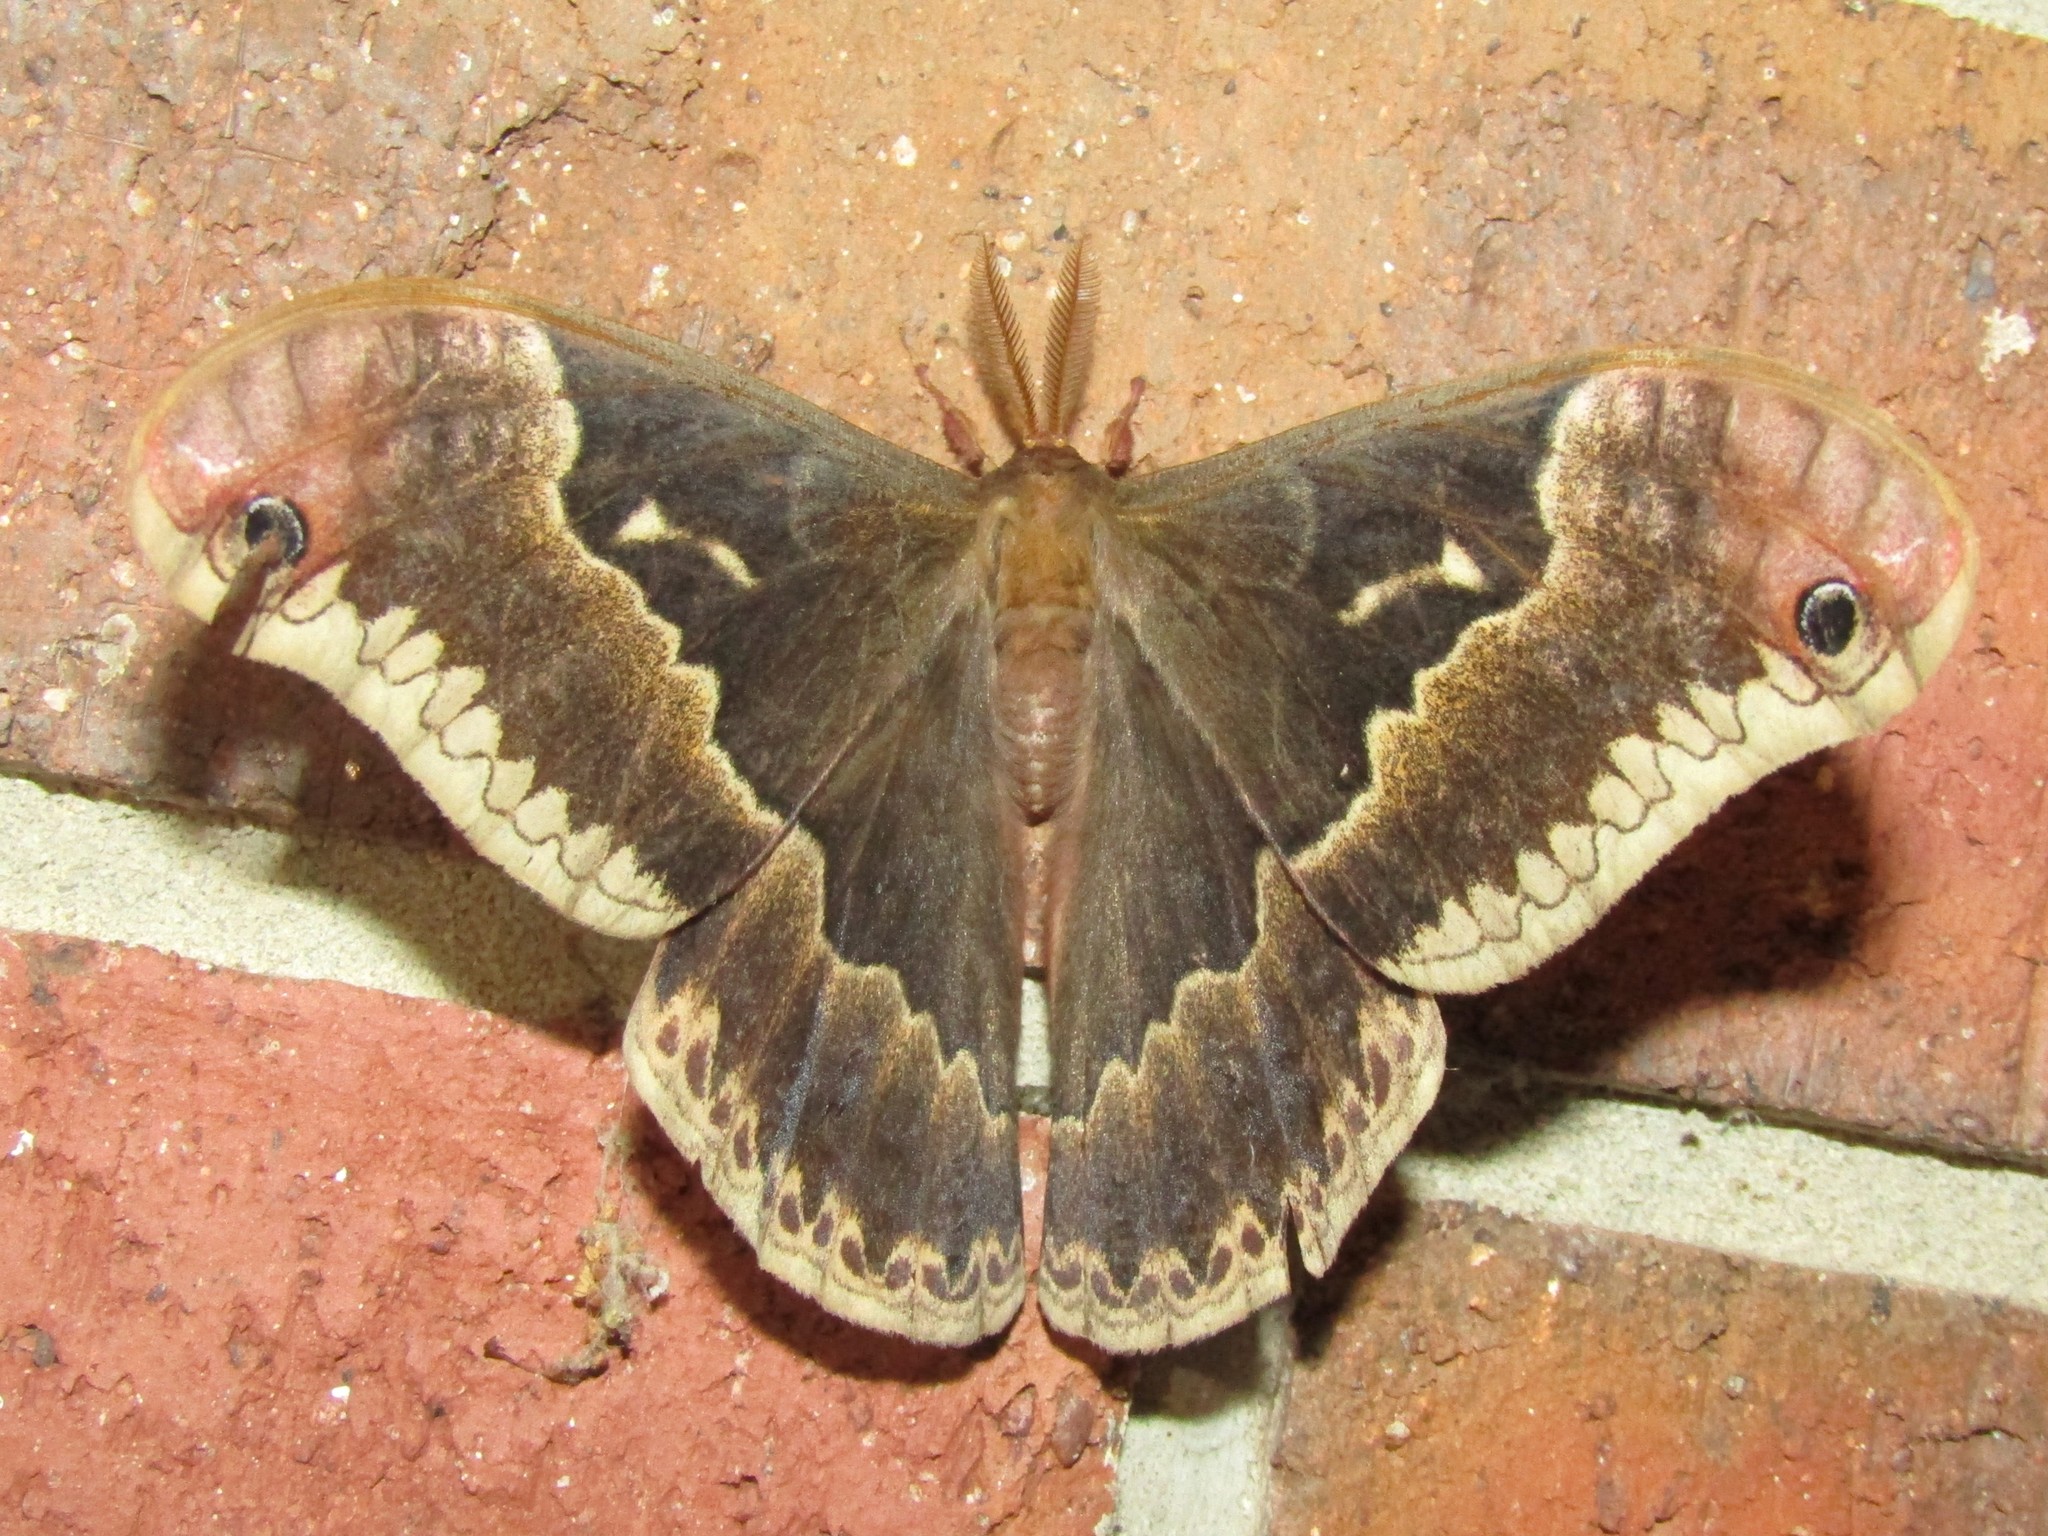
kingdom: Animalia
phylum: Arthropoda
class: Insecta
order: Lepidoptera
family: Saturniidae
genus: Callosamia
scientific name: Callosamia angulifera
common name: Tulip tree silkmoth
